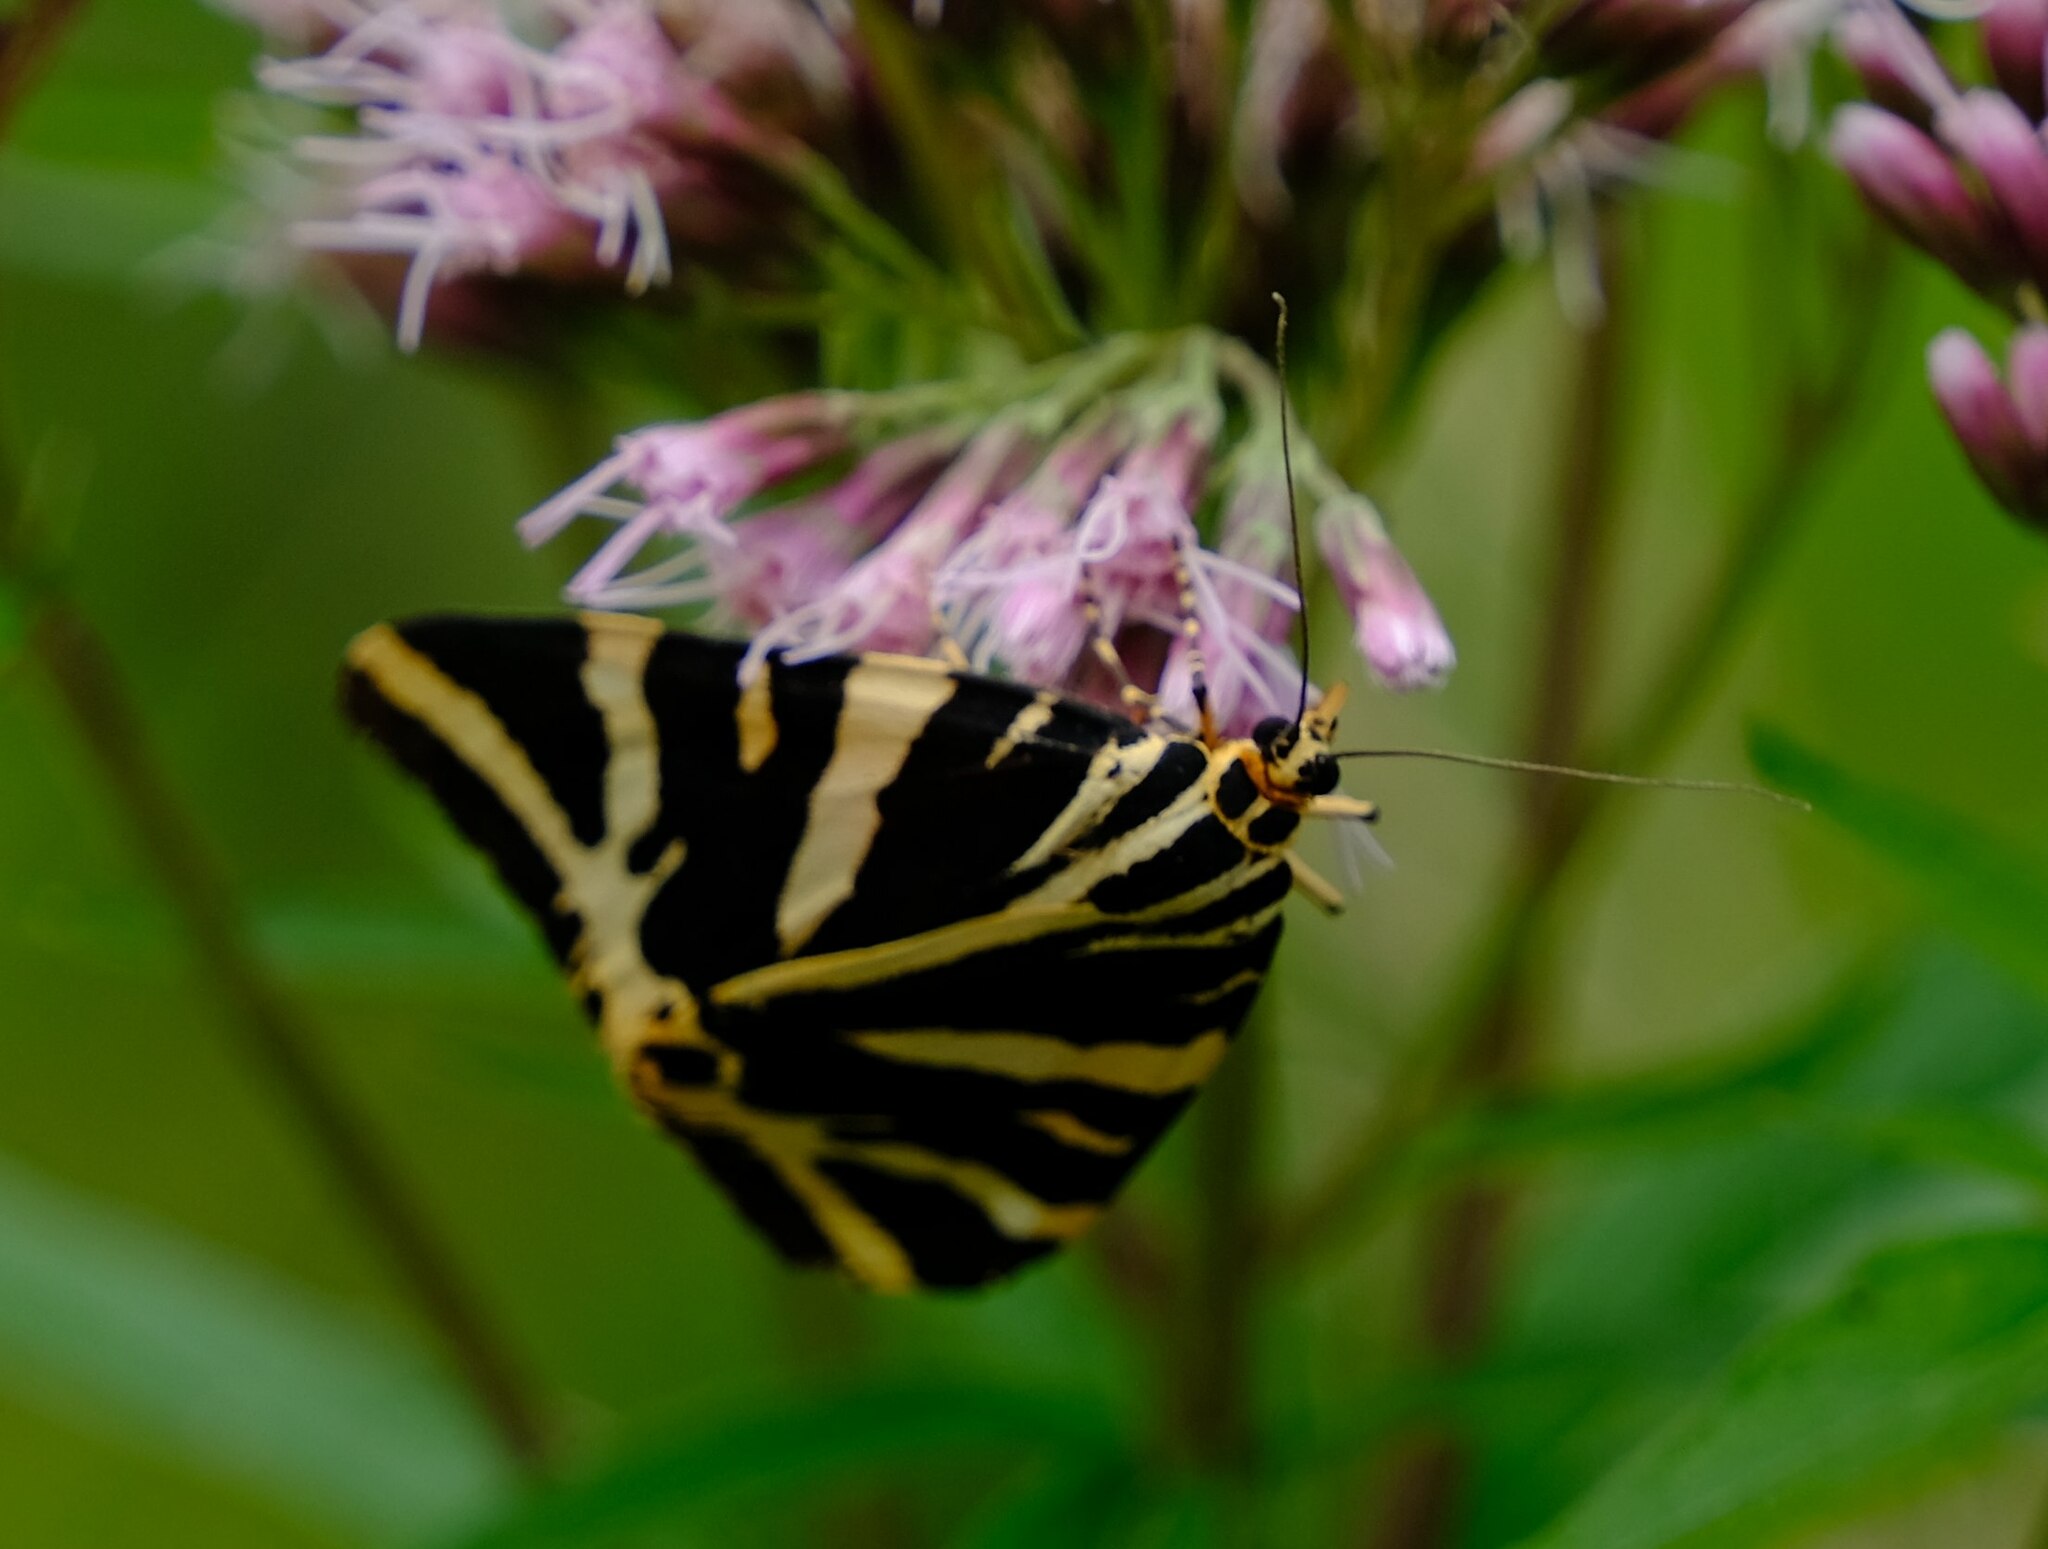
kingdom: Animalia
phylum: Arthropoda
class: Insecta
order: Lepidoptera
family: Erebidae
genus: Euplagia
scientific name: Euplagia quadripunctaria
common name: Jersey tiger
